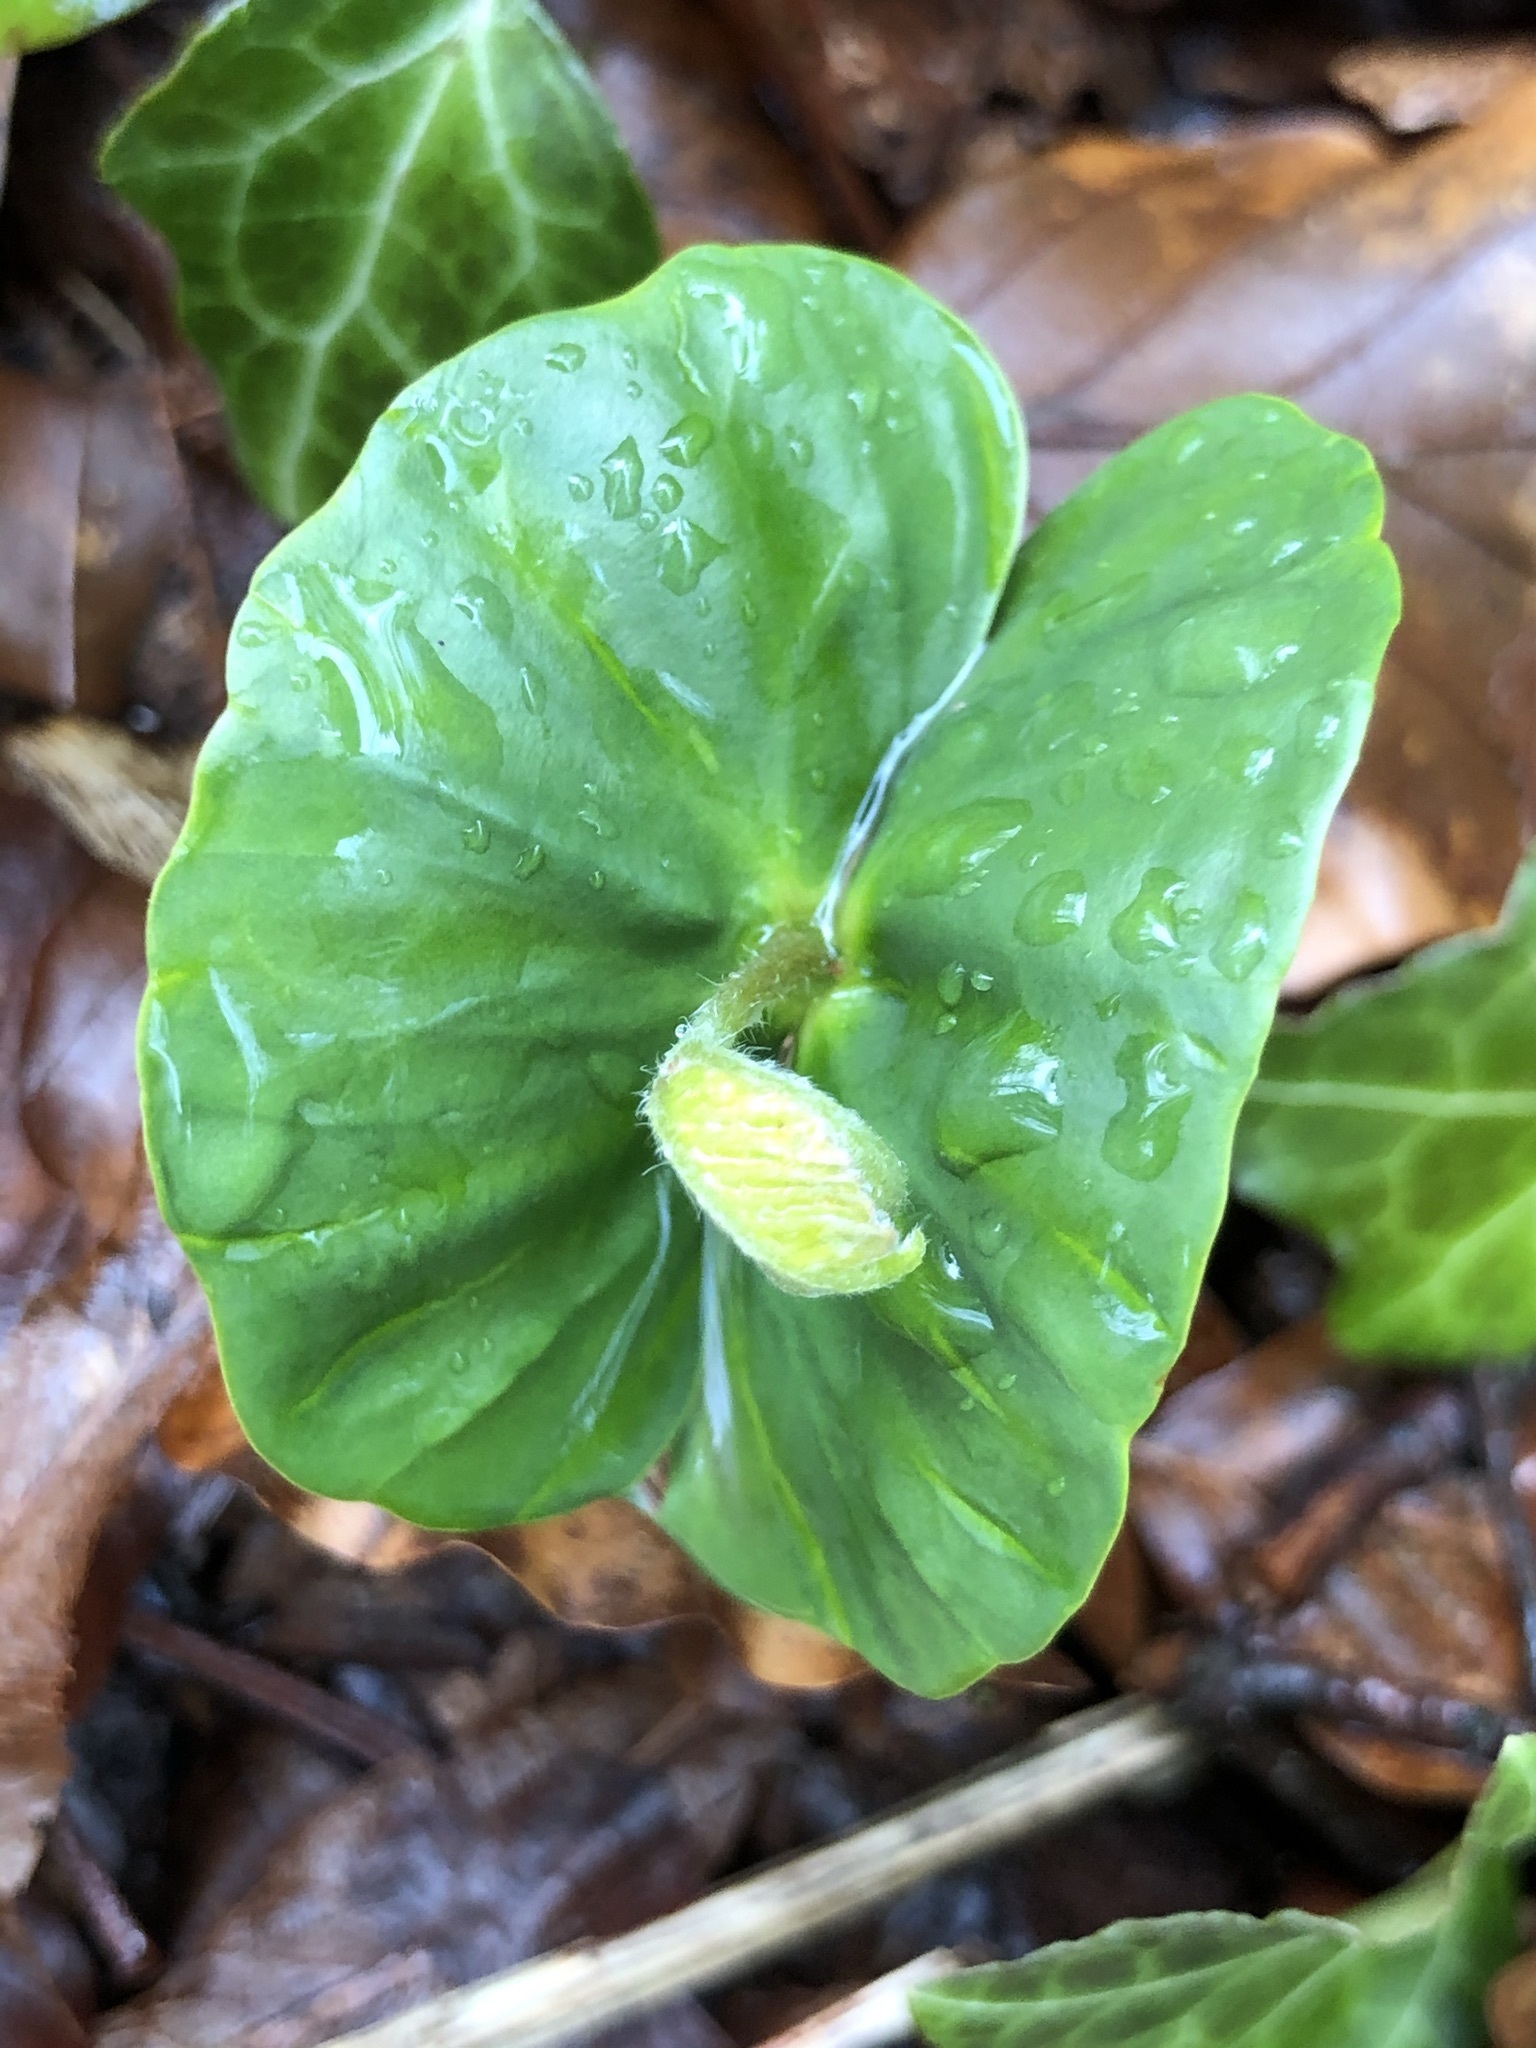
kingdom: Plantae
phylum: Tracheophyta
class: Magnoliopsida
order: Fagales
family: Fagaceae
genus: Fagus
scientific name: Fagus sylvatica
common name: Beech
